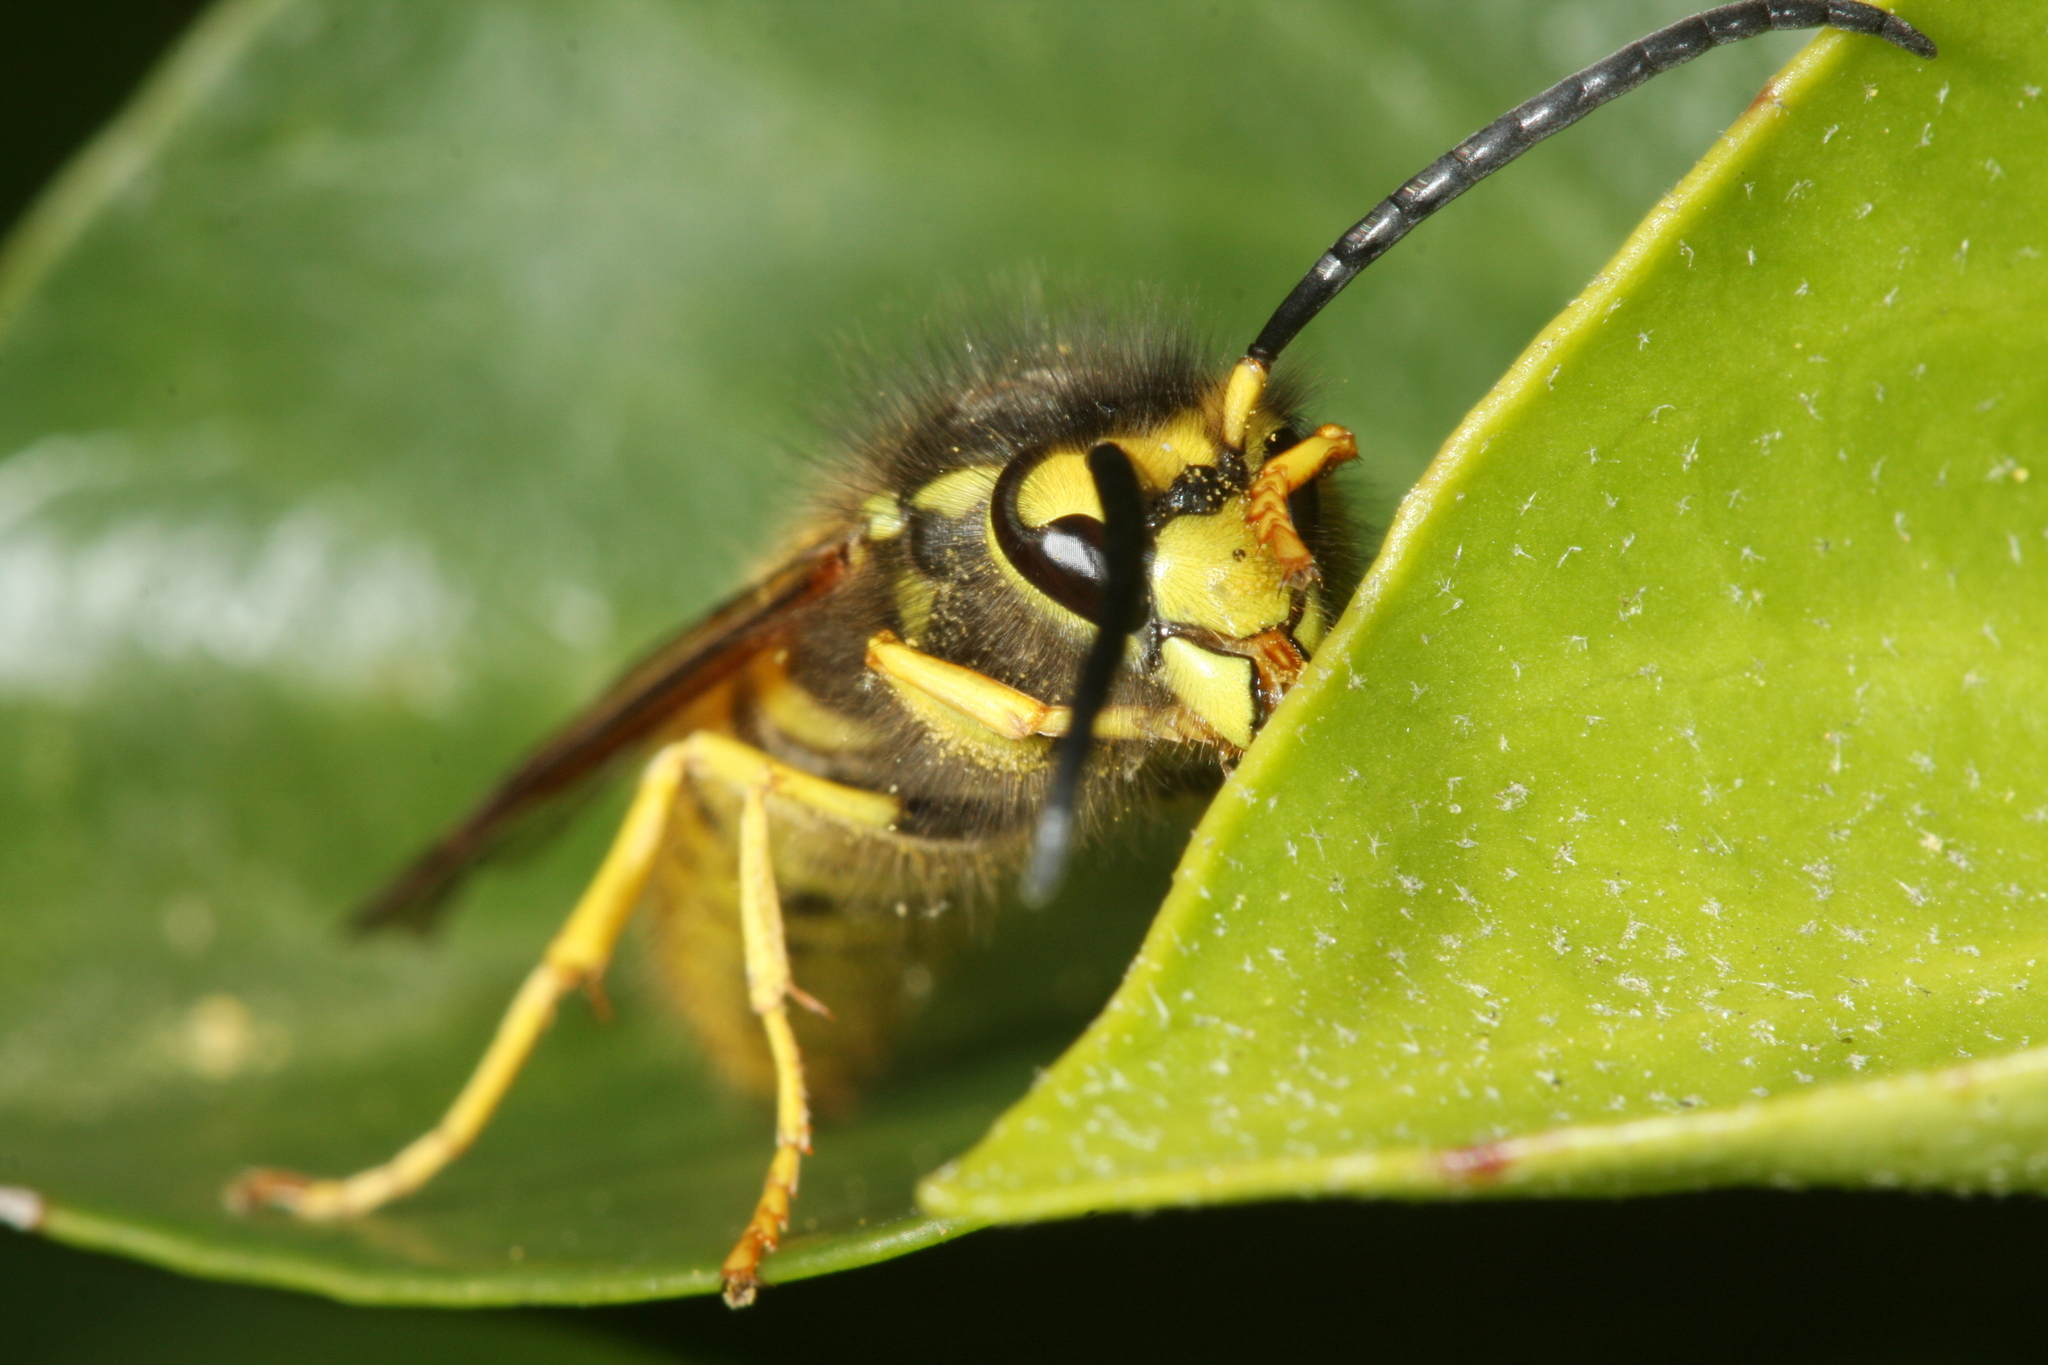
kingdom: Animalia
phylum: Arthropoda
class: Insecta
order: Hymenoptera
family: Vespidae
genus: Vespula
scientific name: Vespula germanica
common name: German wasp
